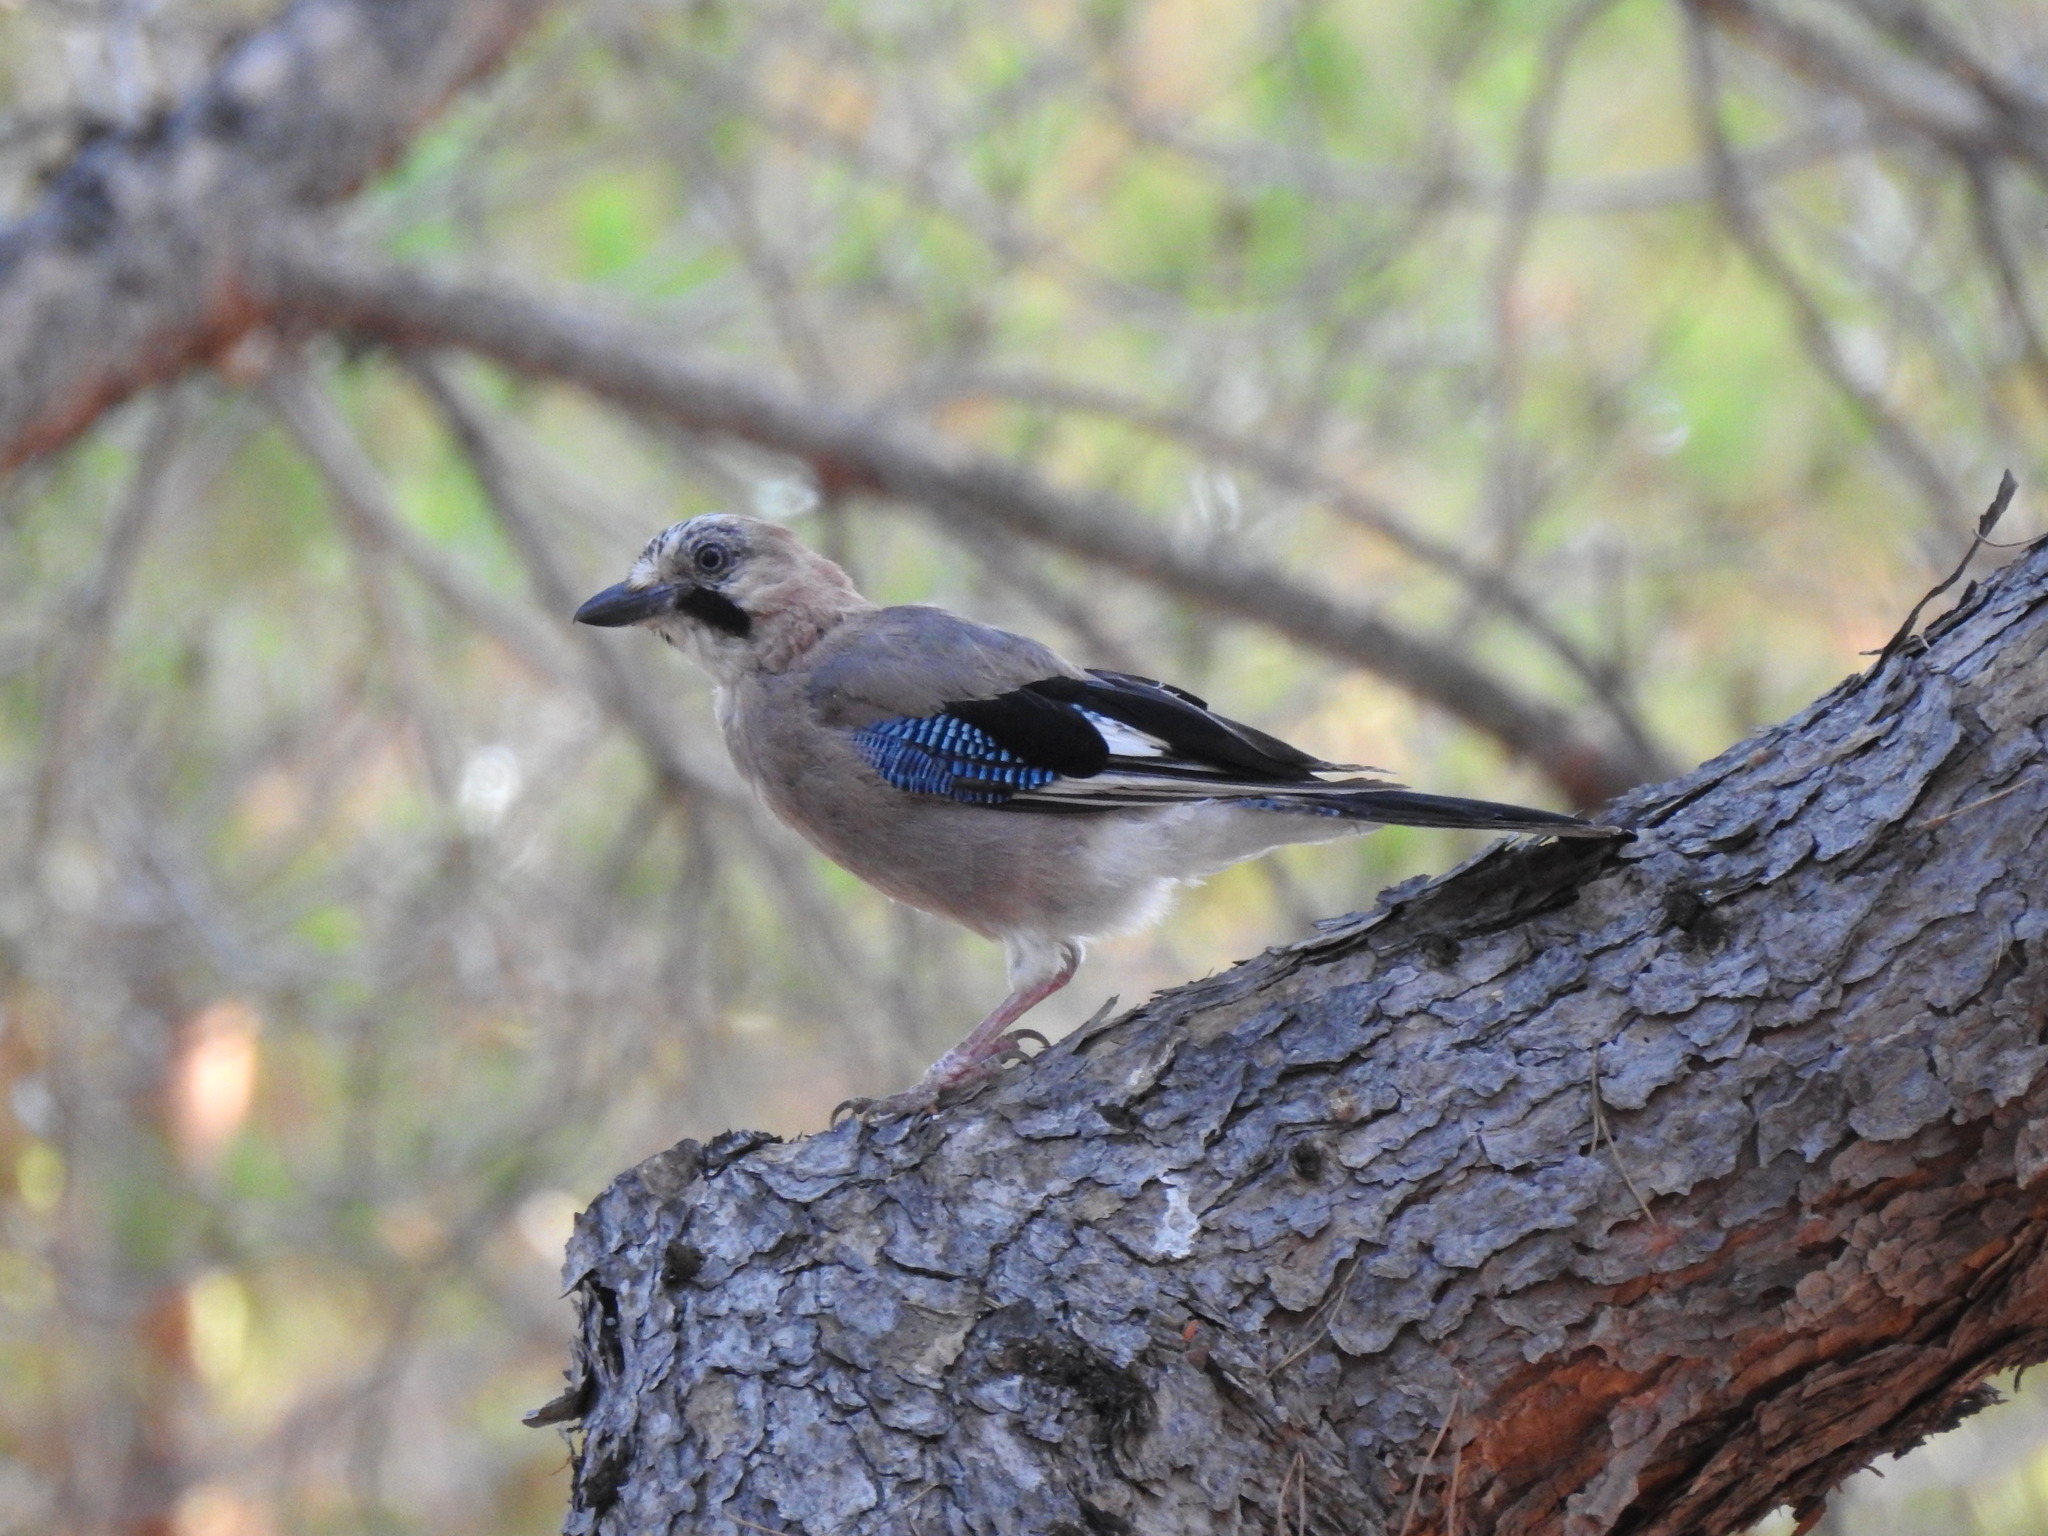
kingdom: Animalia
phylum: Chordata
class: Aves
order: Passeriformes
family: Corvidae
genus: Garrulus
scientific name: Garrulus glandarius
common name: Eurasian jay
